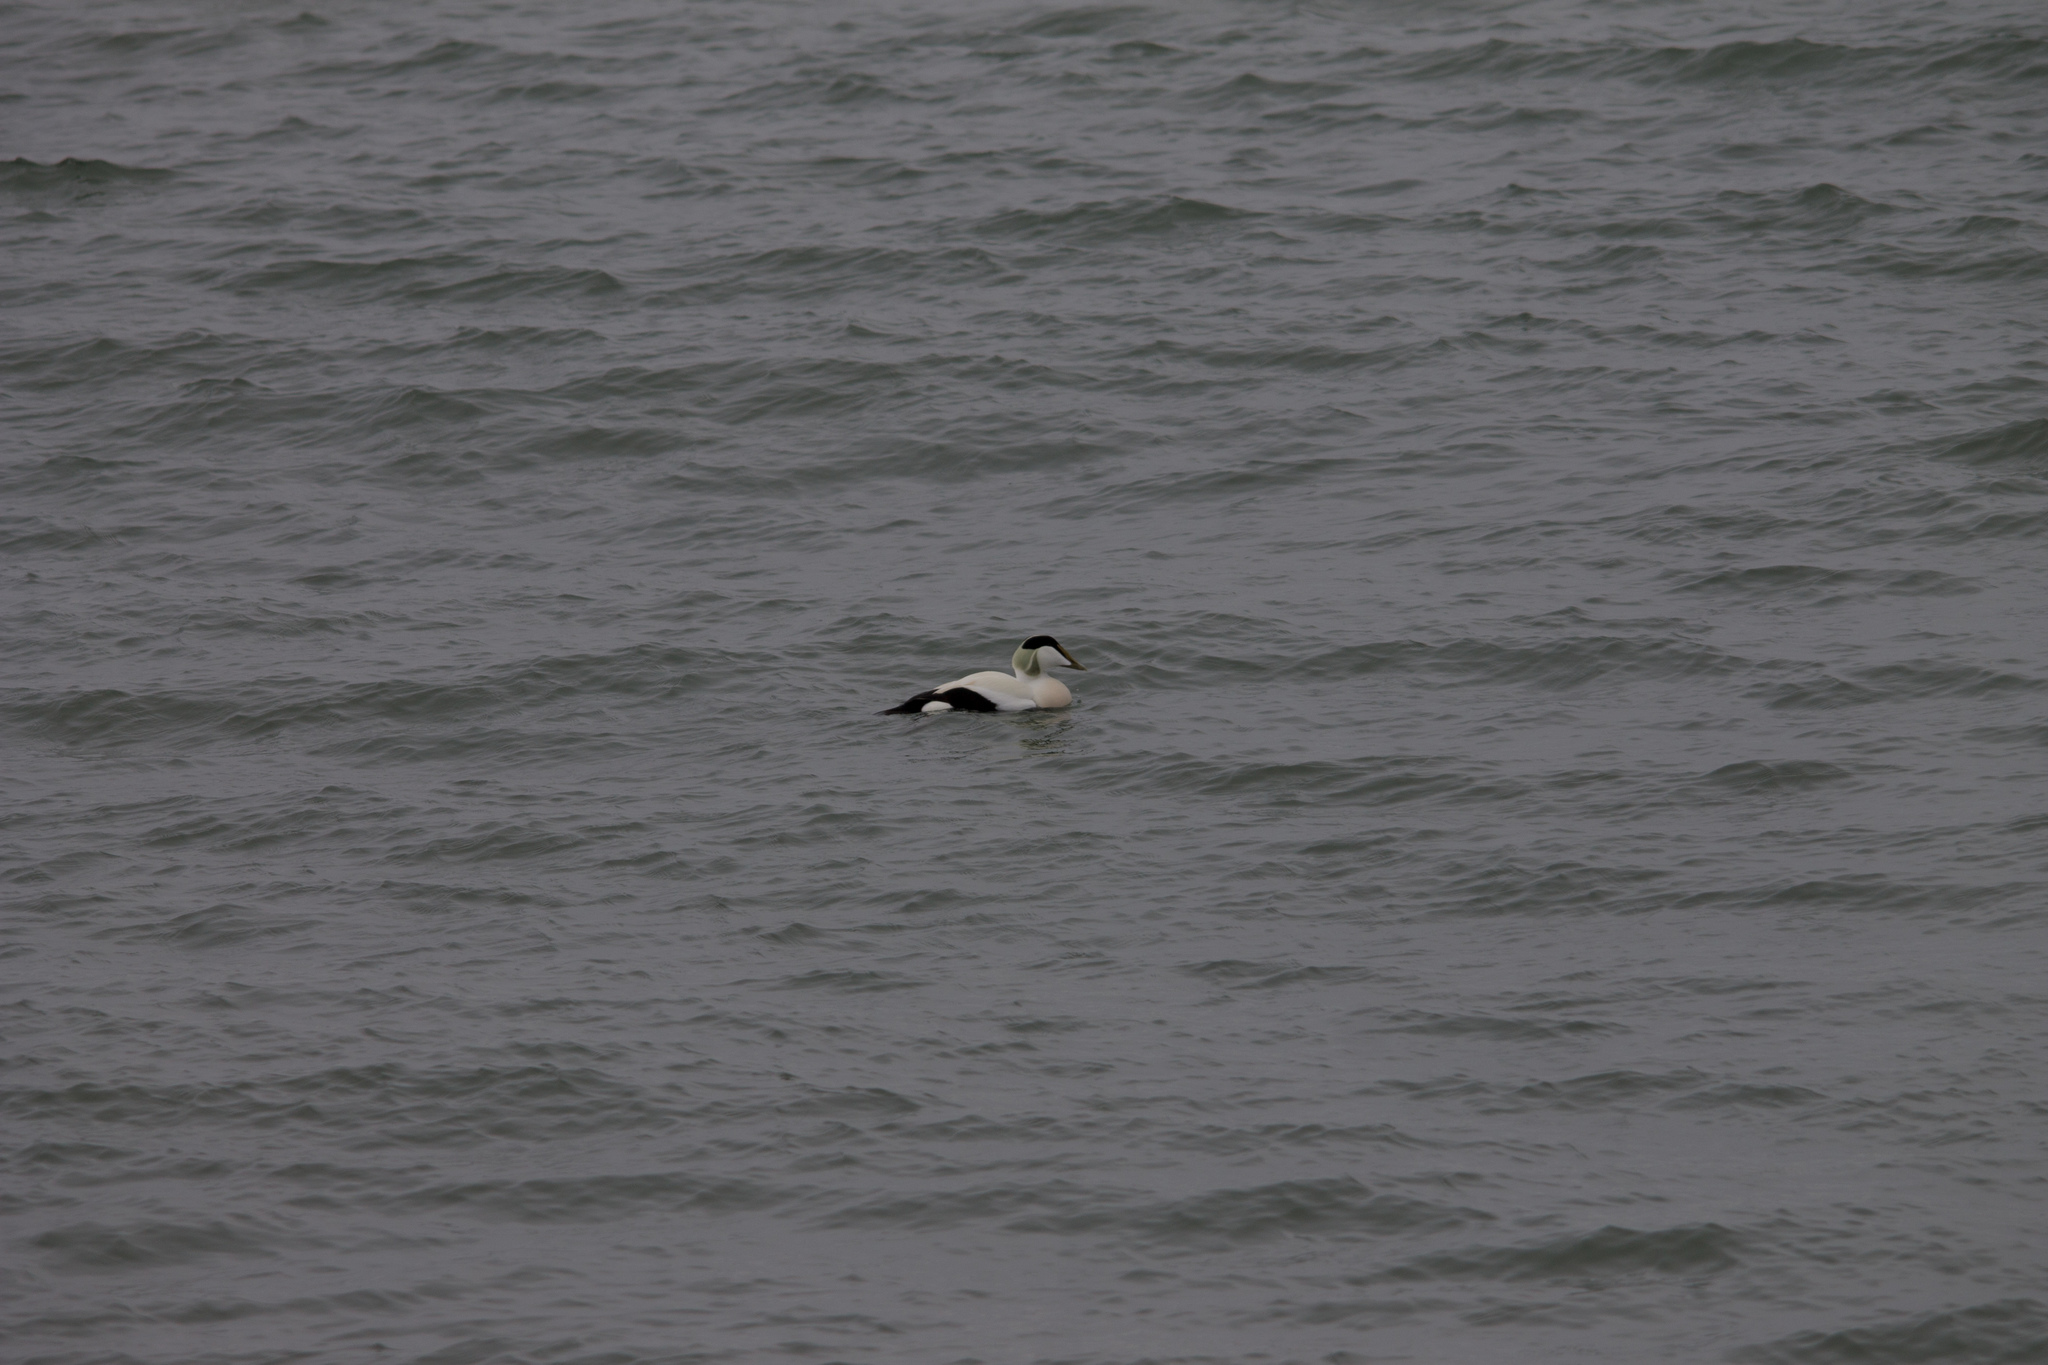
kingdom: Animalia
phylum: Chordata
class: Aves
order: Anseriformes
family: Anatidae
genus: Somateria
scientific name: Somateria mollissima
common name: Common eider
